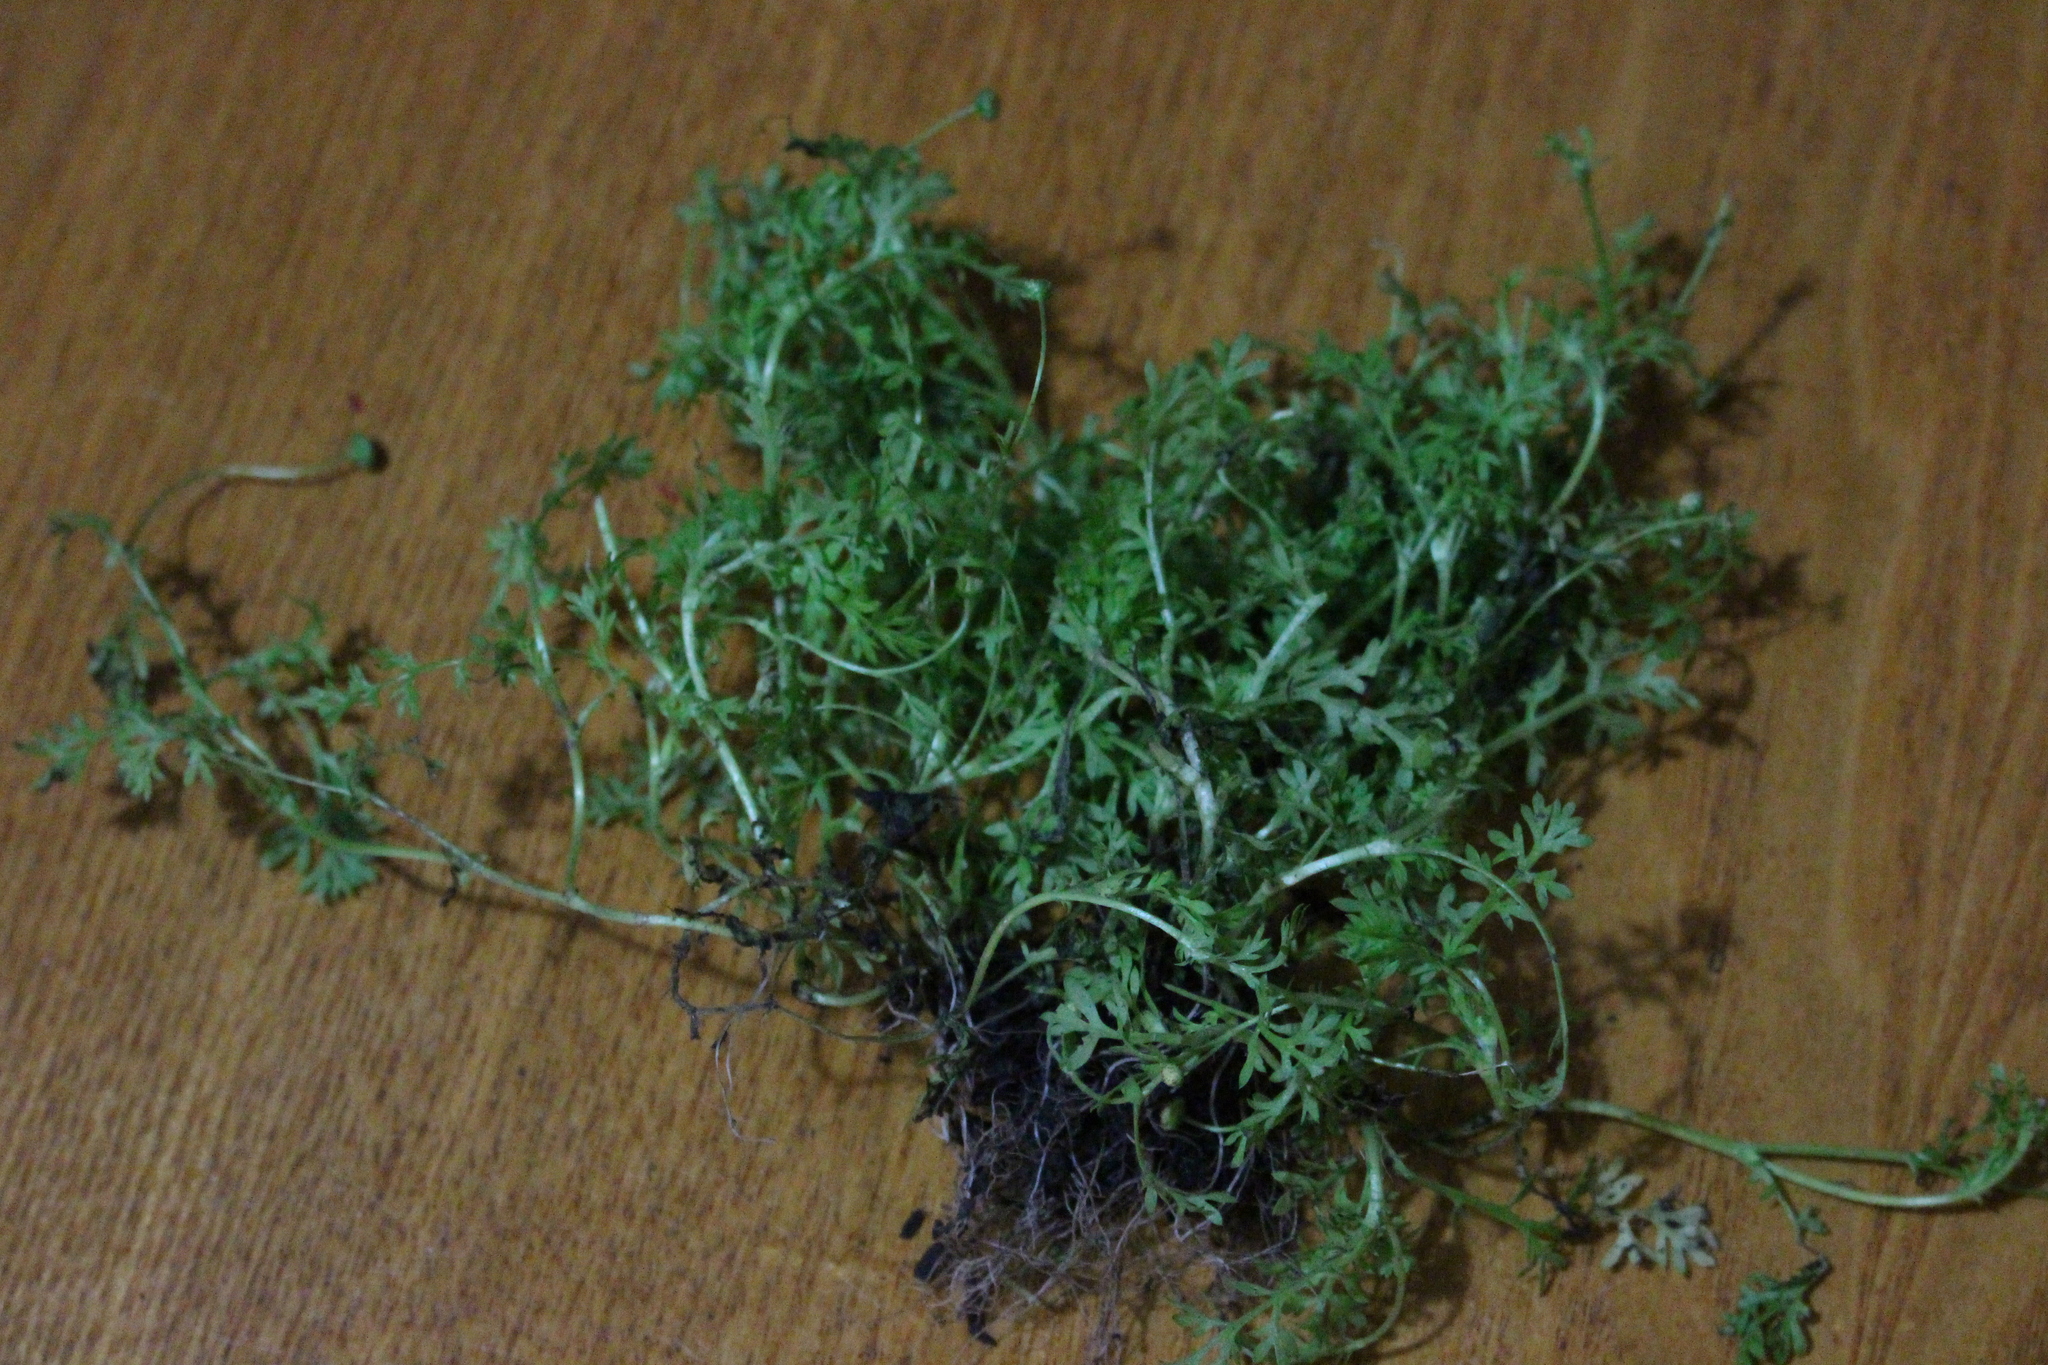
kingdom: Plantae
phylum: Tracheophyta
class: Magnoliopsida
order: Asterales
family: Asteraceae
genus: Cotula
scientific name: Cotula australis
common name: Australian waterbuttons
